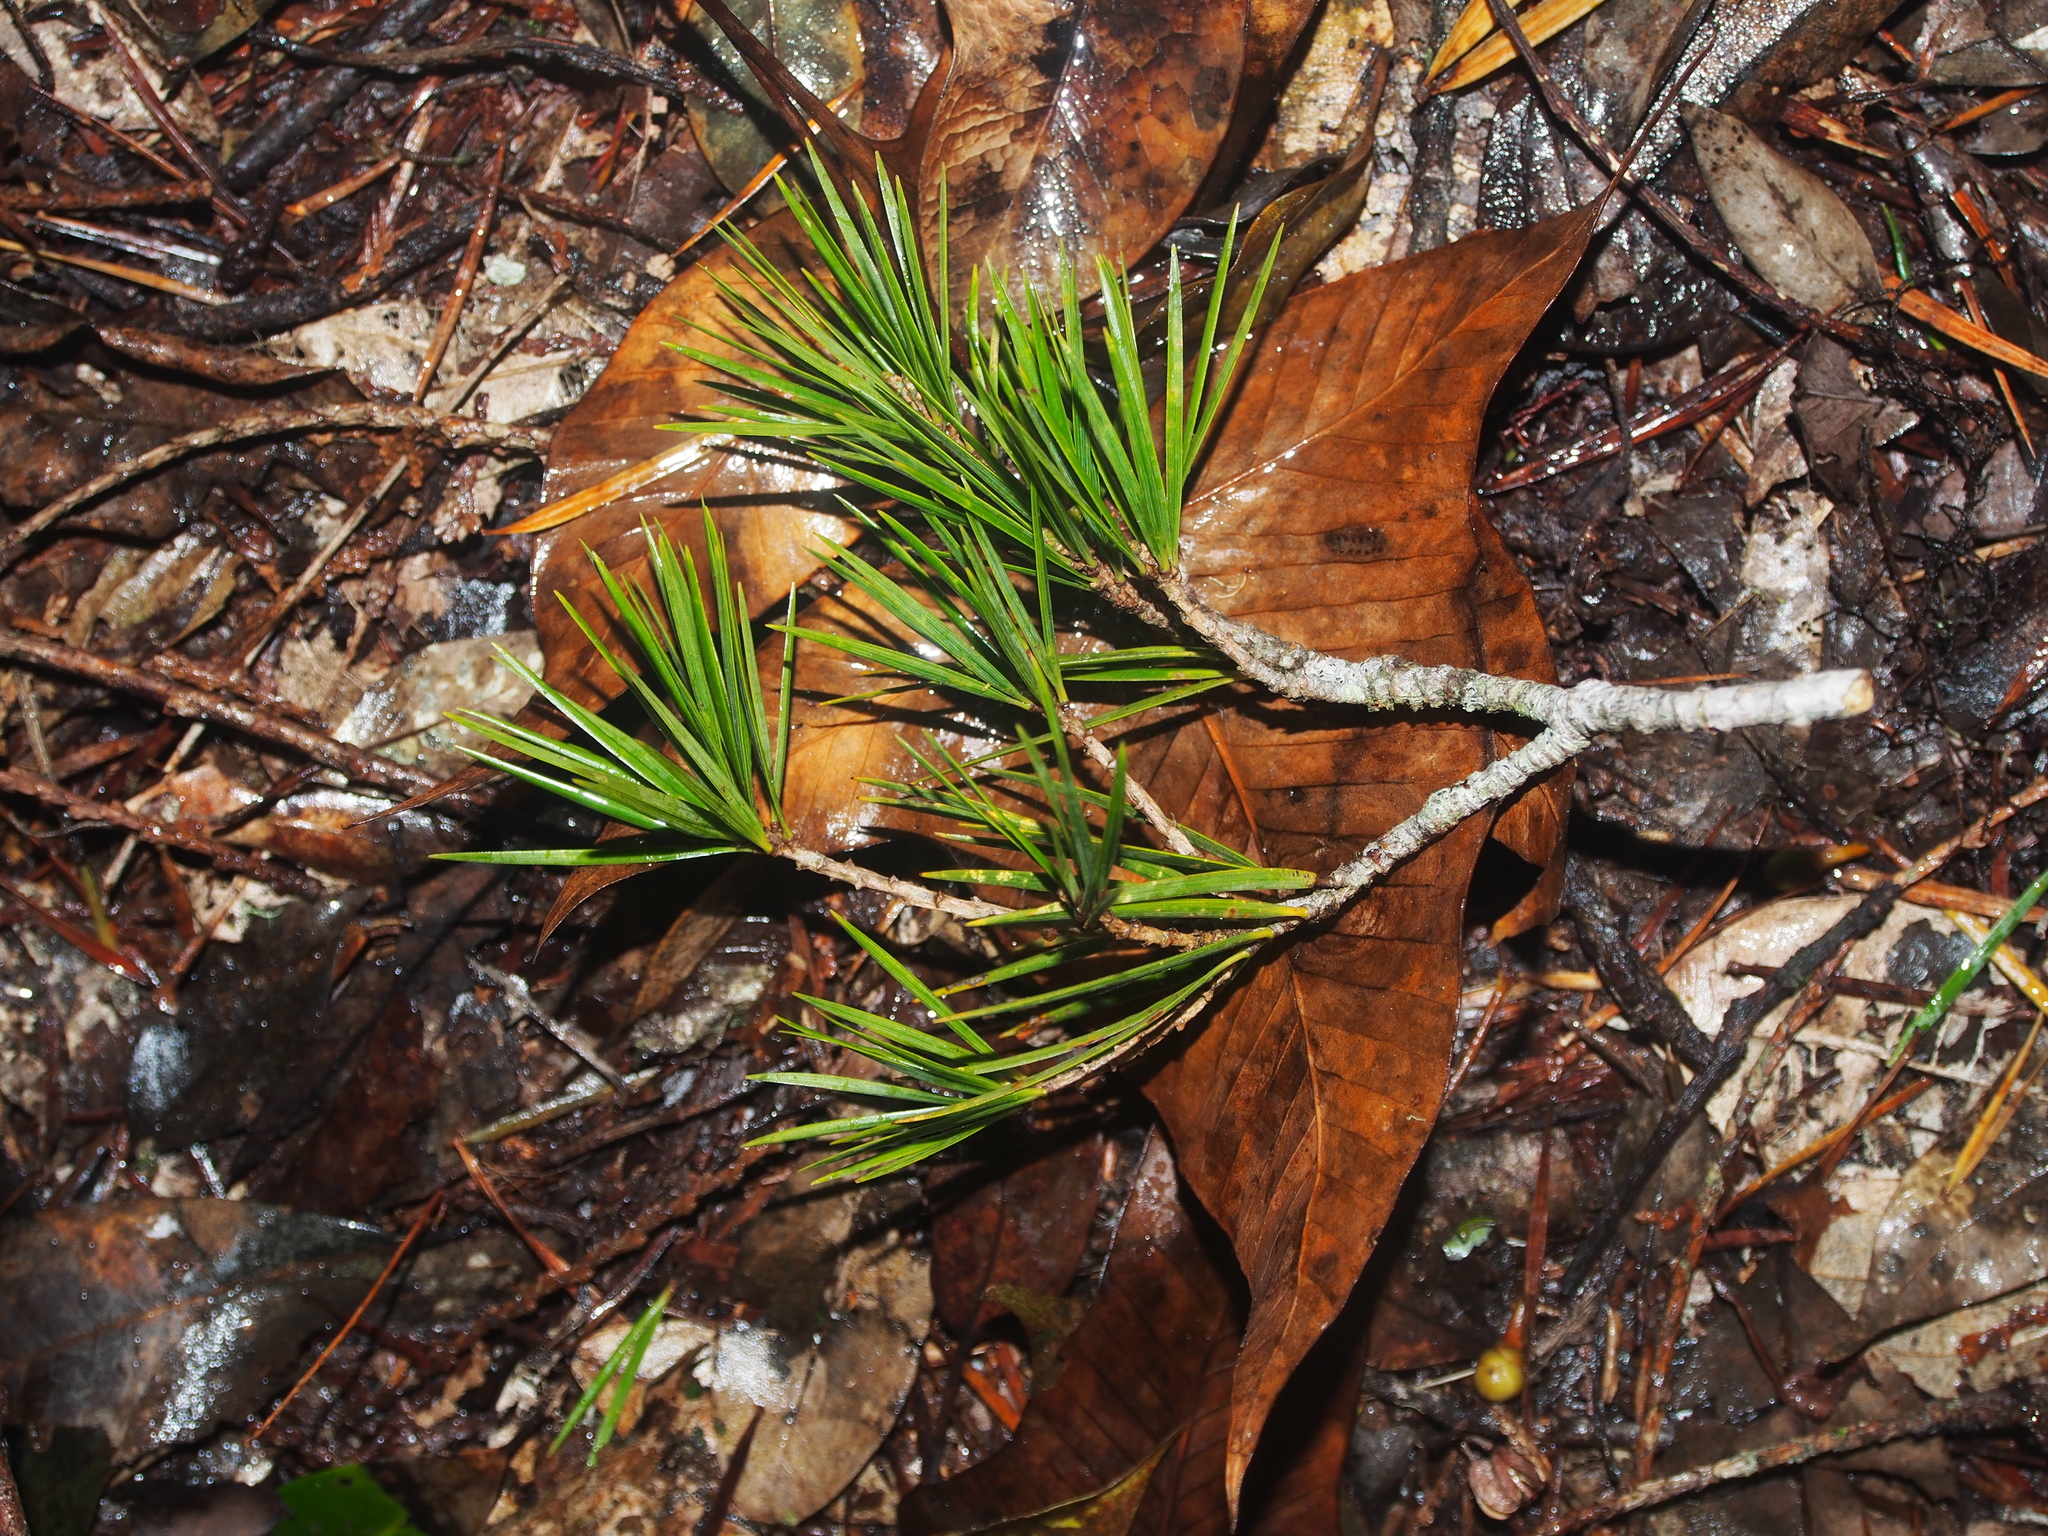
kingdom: Plantae
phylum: Tracheophyta
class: Pinopsida
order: Pinales
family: Pinaceae
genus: Pinus
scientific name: Pinus krempfii
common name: Krempf's pine
